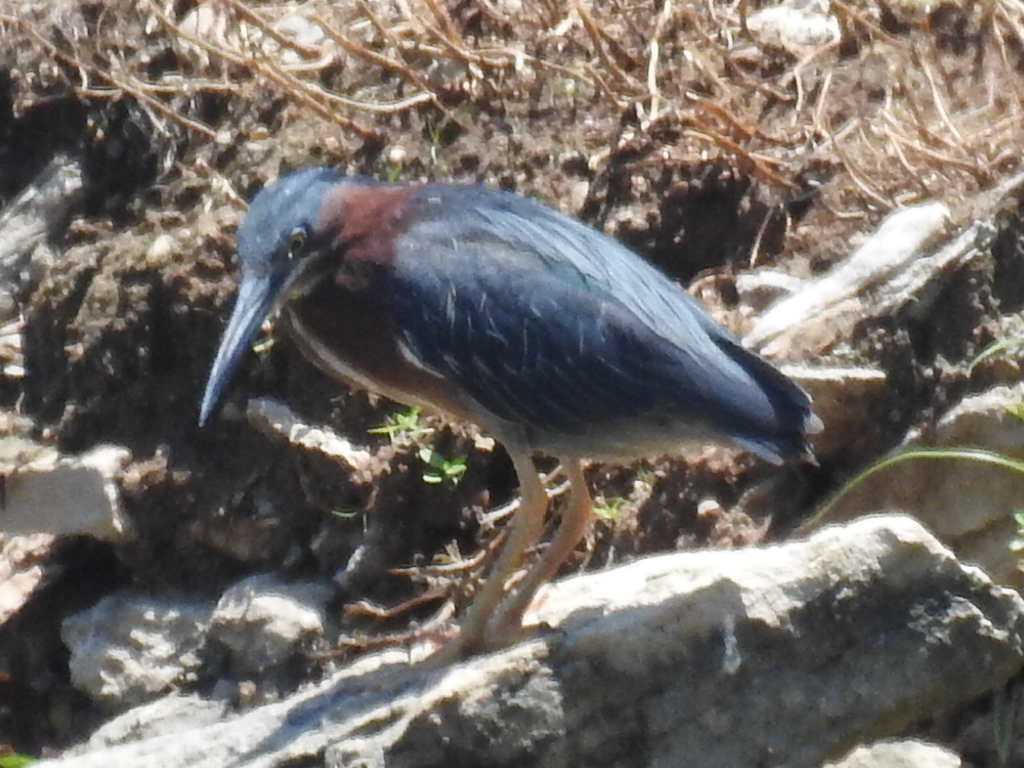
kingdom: Animalia
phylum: Chordata
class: Aves
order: Pelecaniformes
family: Ardeidae
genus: Butorides
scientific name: Butorides virescens
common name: Green heron
